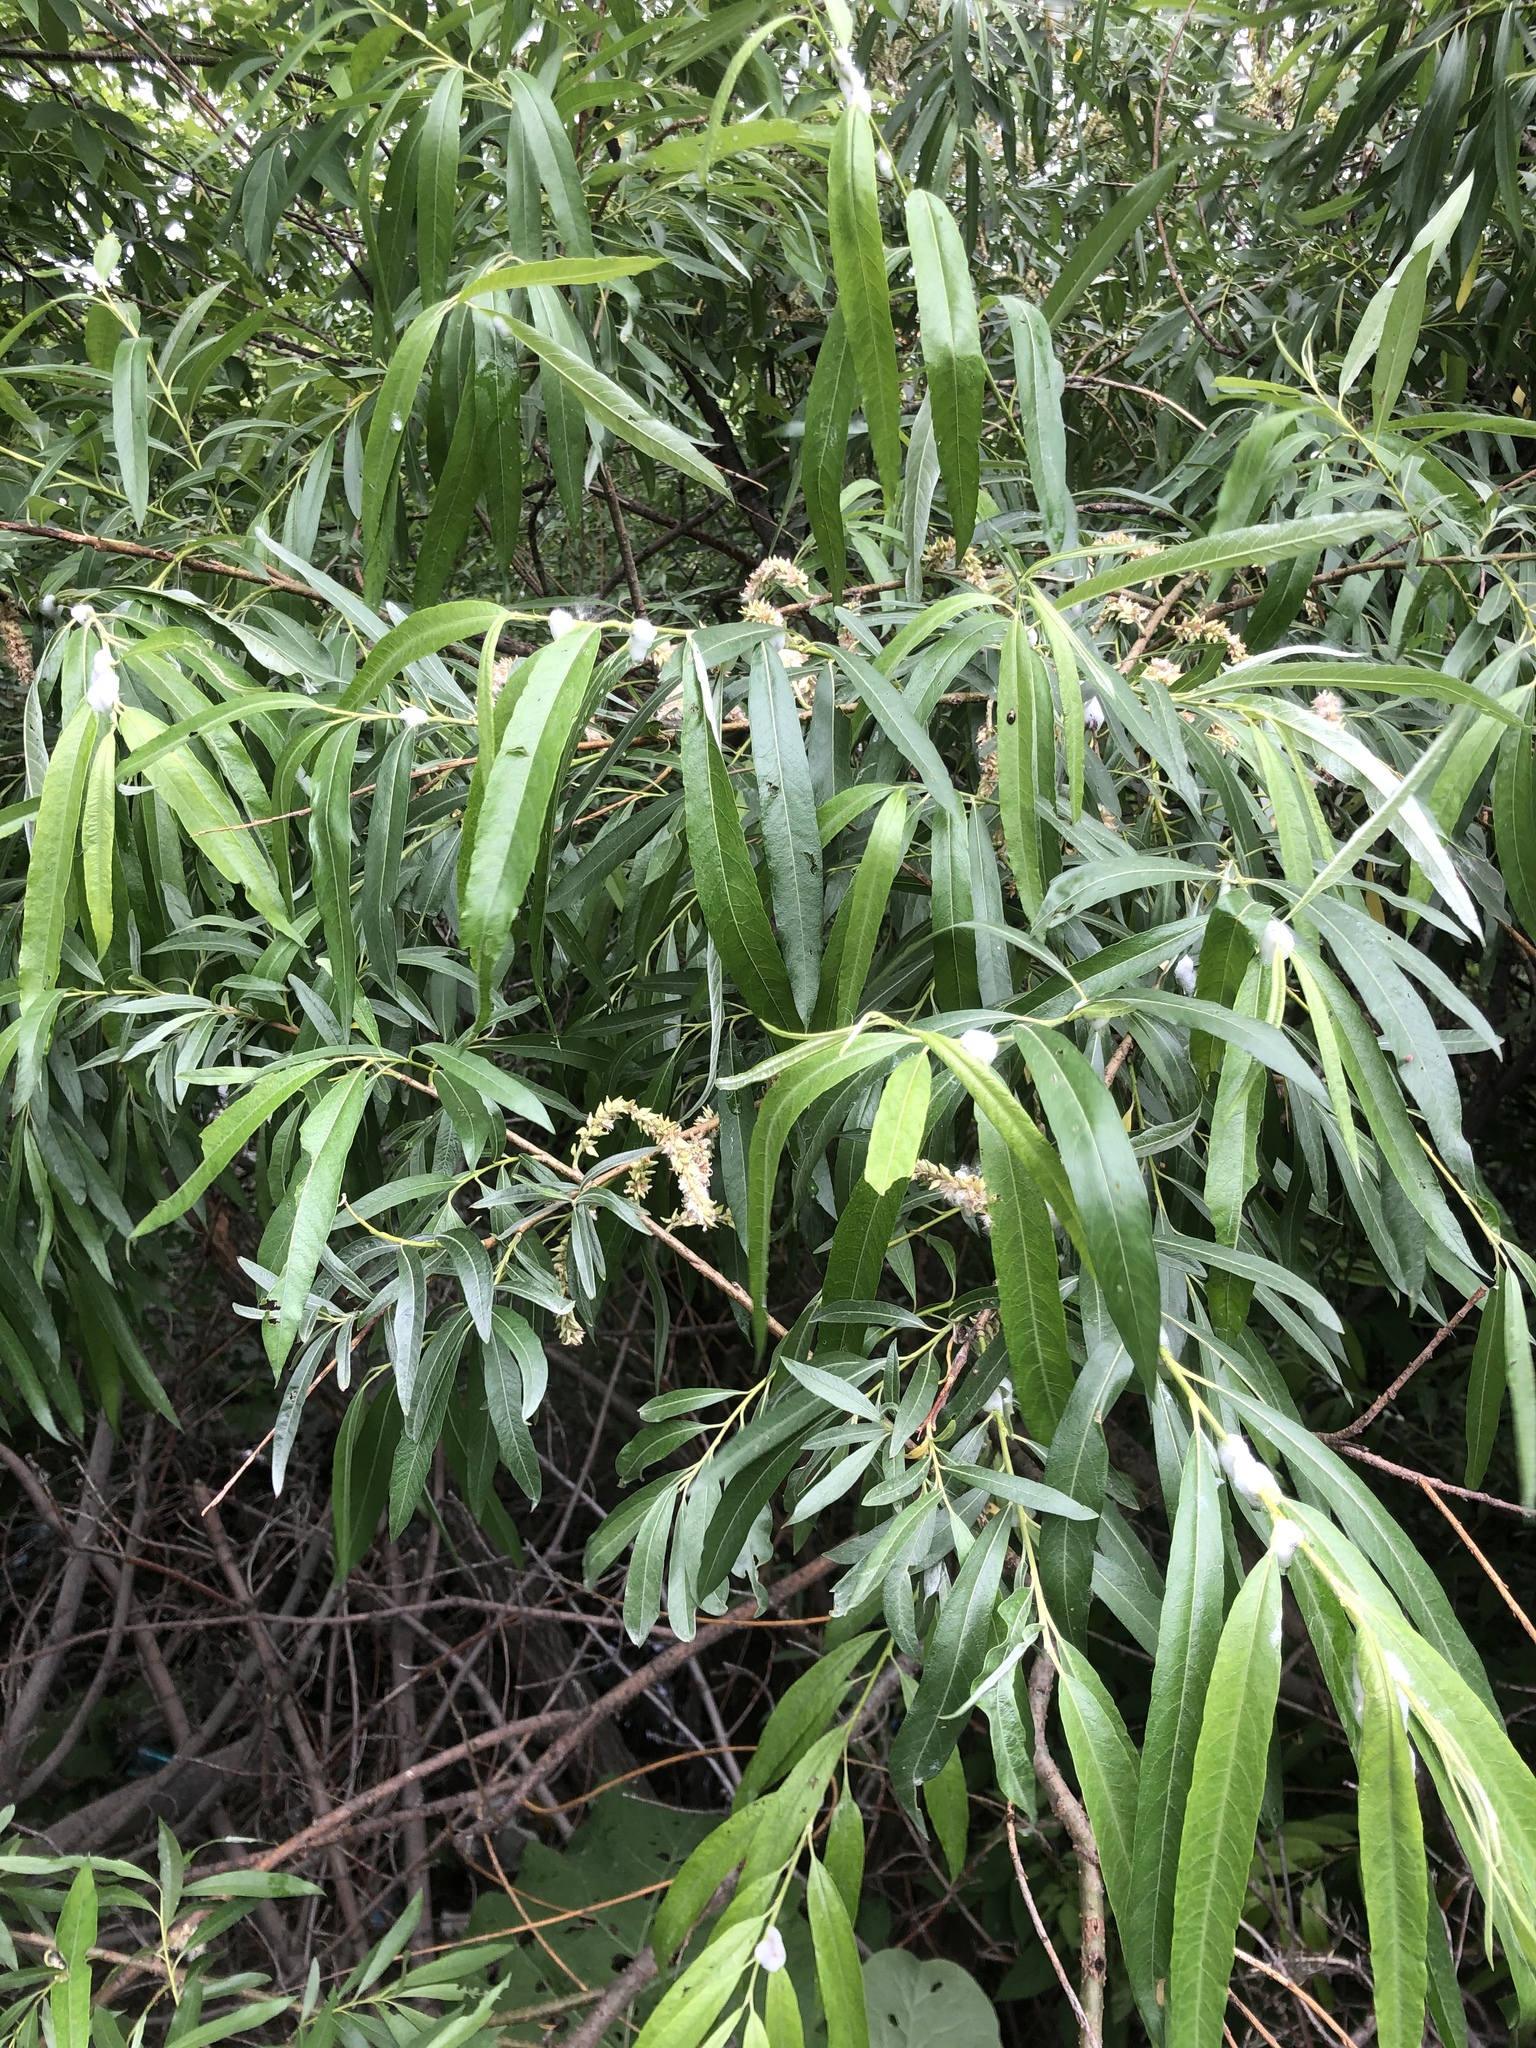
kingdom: Plantae
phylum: Tracheophyta
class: Magnoliopsida
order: Malpighiales
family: Salicaceae
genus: Salix
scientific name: Salix gmelinii
